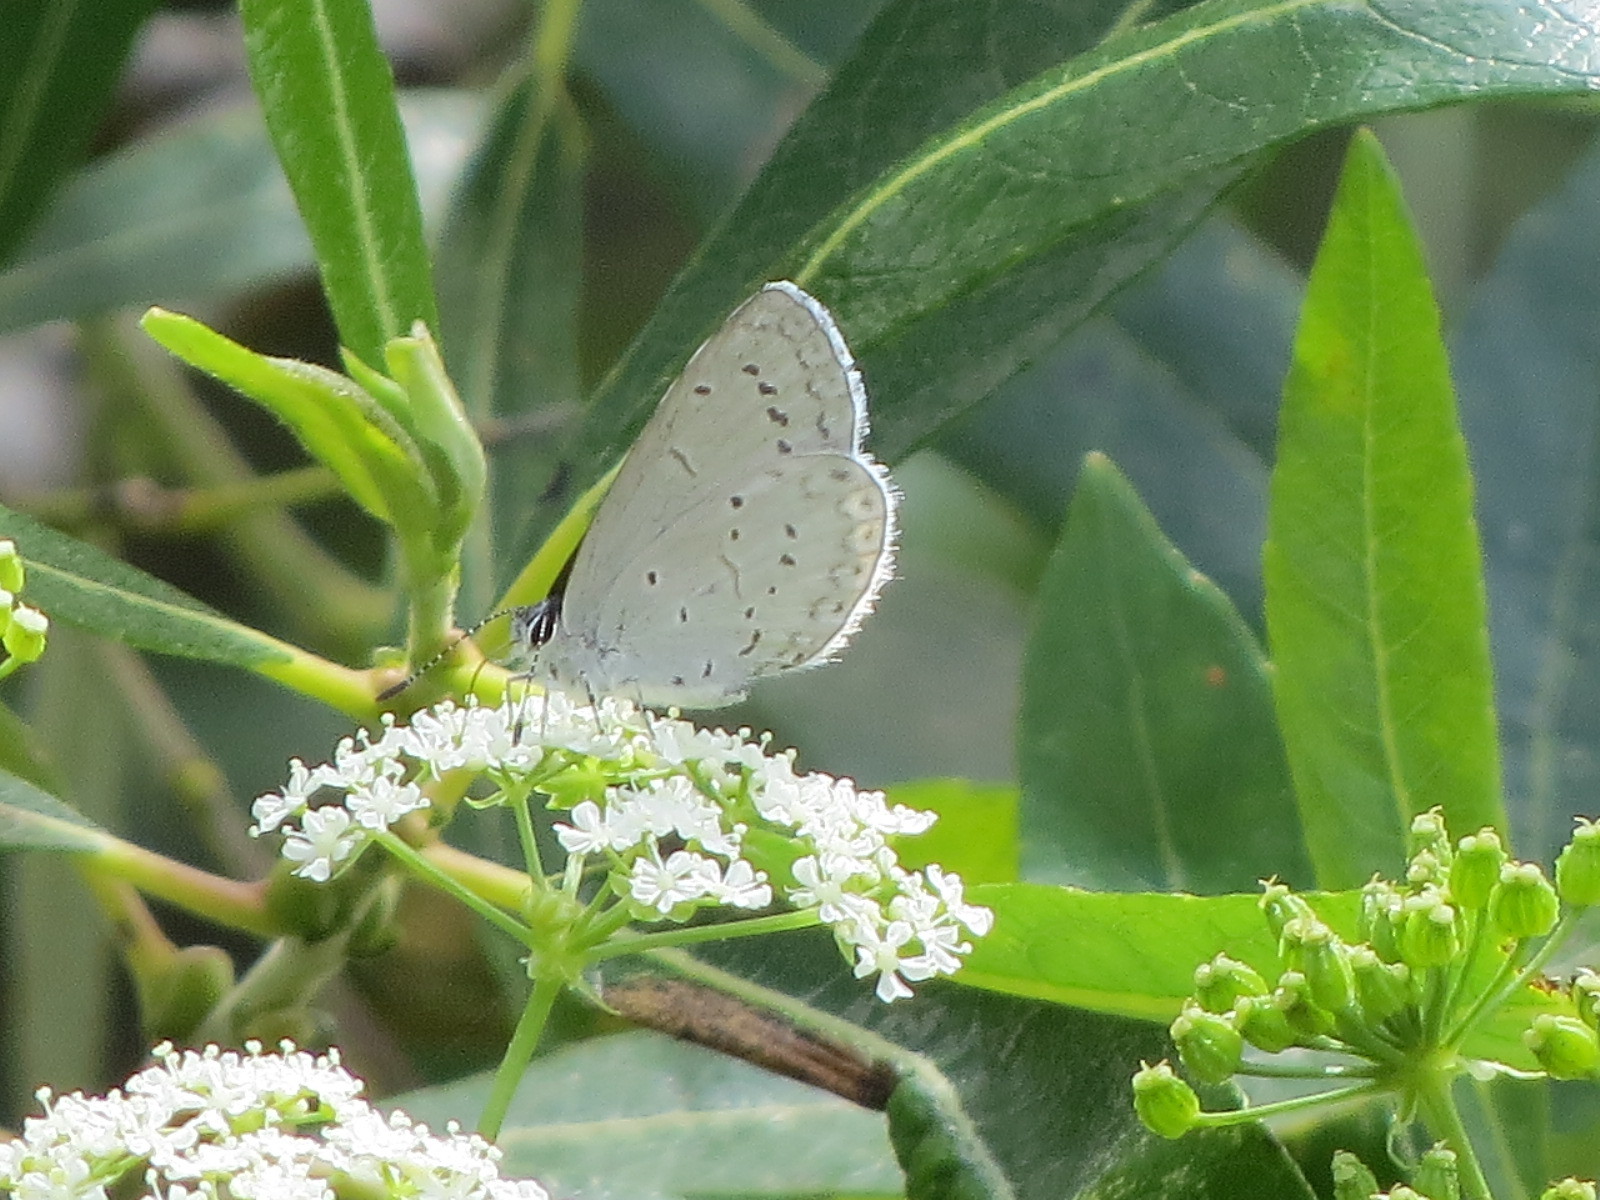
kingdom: Animalia
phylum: Arthropoda
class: Insecta
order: Lepidoptera
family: Lycaenidae
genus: Celastrina
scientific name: Celastrina ladon
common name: Spring azure
